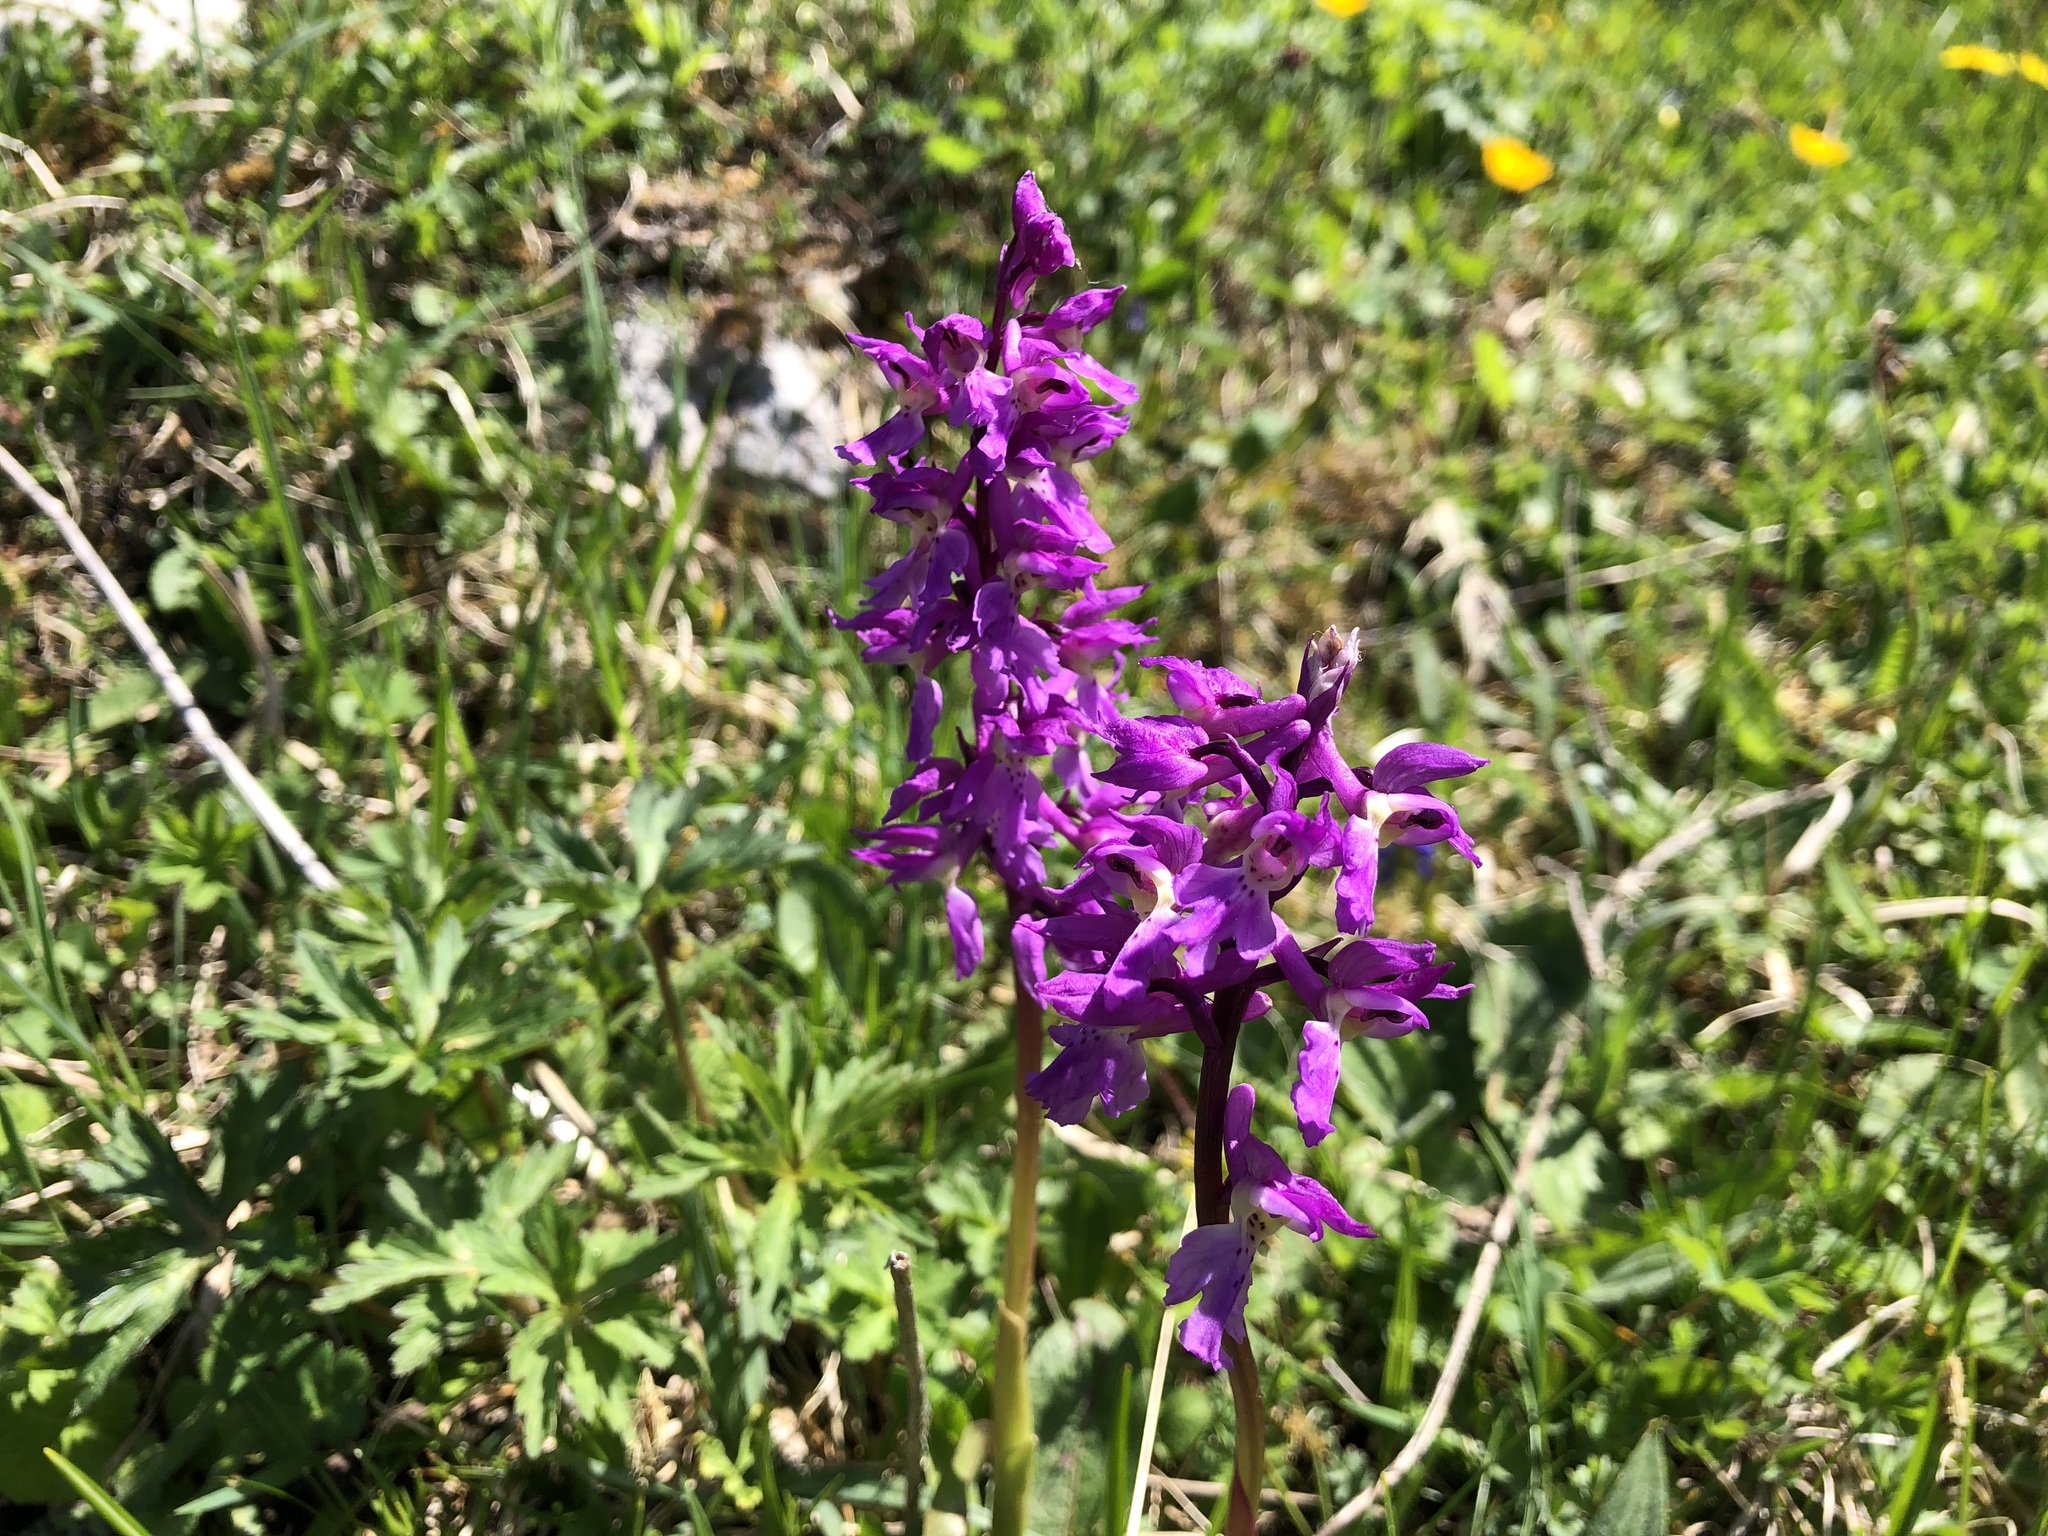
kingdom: Plantae
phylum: Tracheophyta
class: Liliopsida
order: Asparagales
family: Orchidaceae
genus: Orchis
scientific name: Orchis mascula
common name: Early-purple orchid
